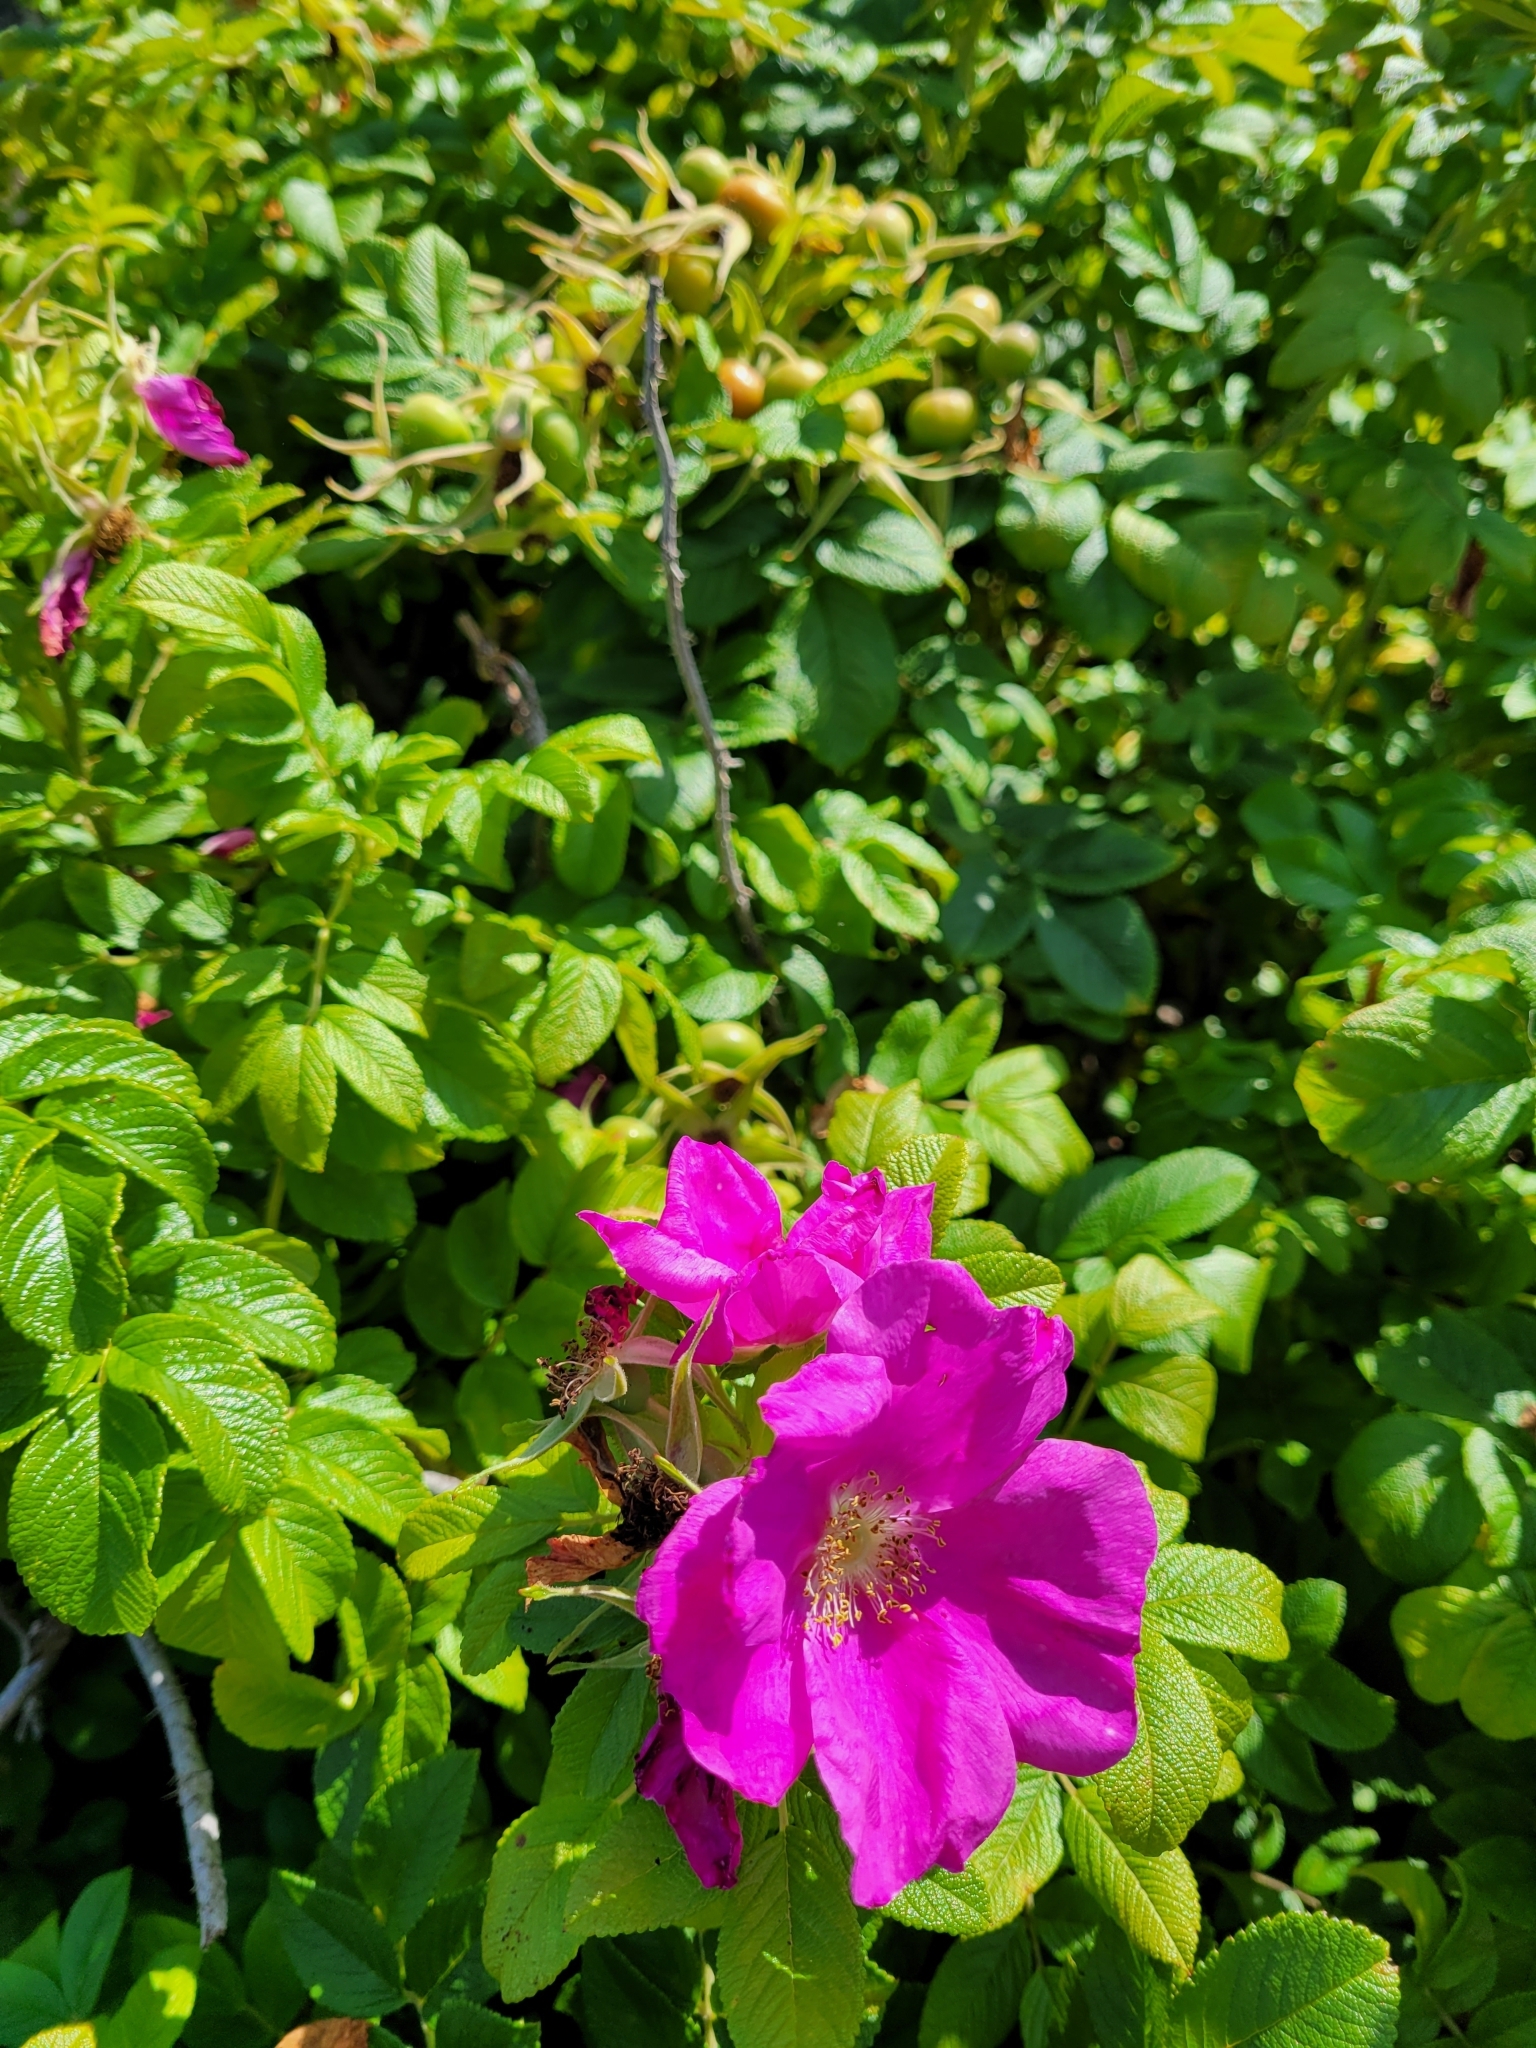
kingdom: Plantae
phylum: Tracheophyta
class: Magnoliopsida
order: Rosales
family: Rosaceae
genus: Rosa
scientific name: Rosa rugosa
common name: Japanese rose
